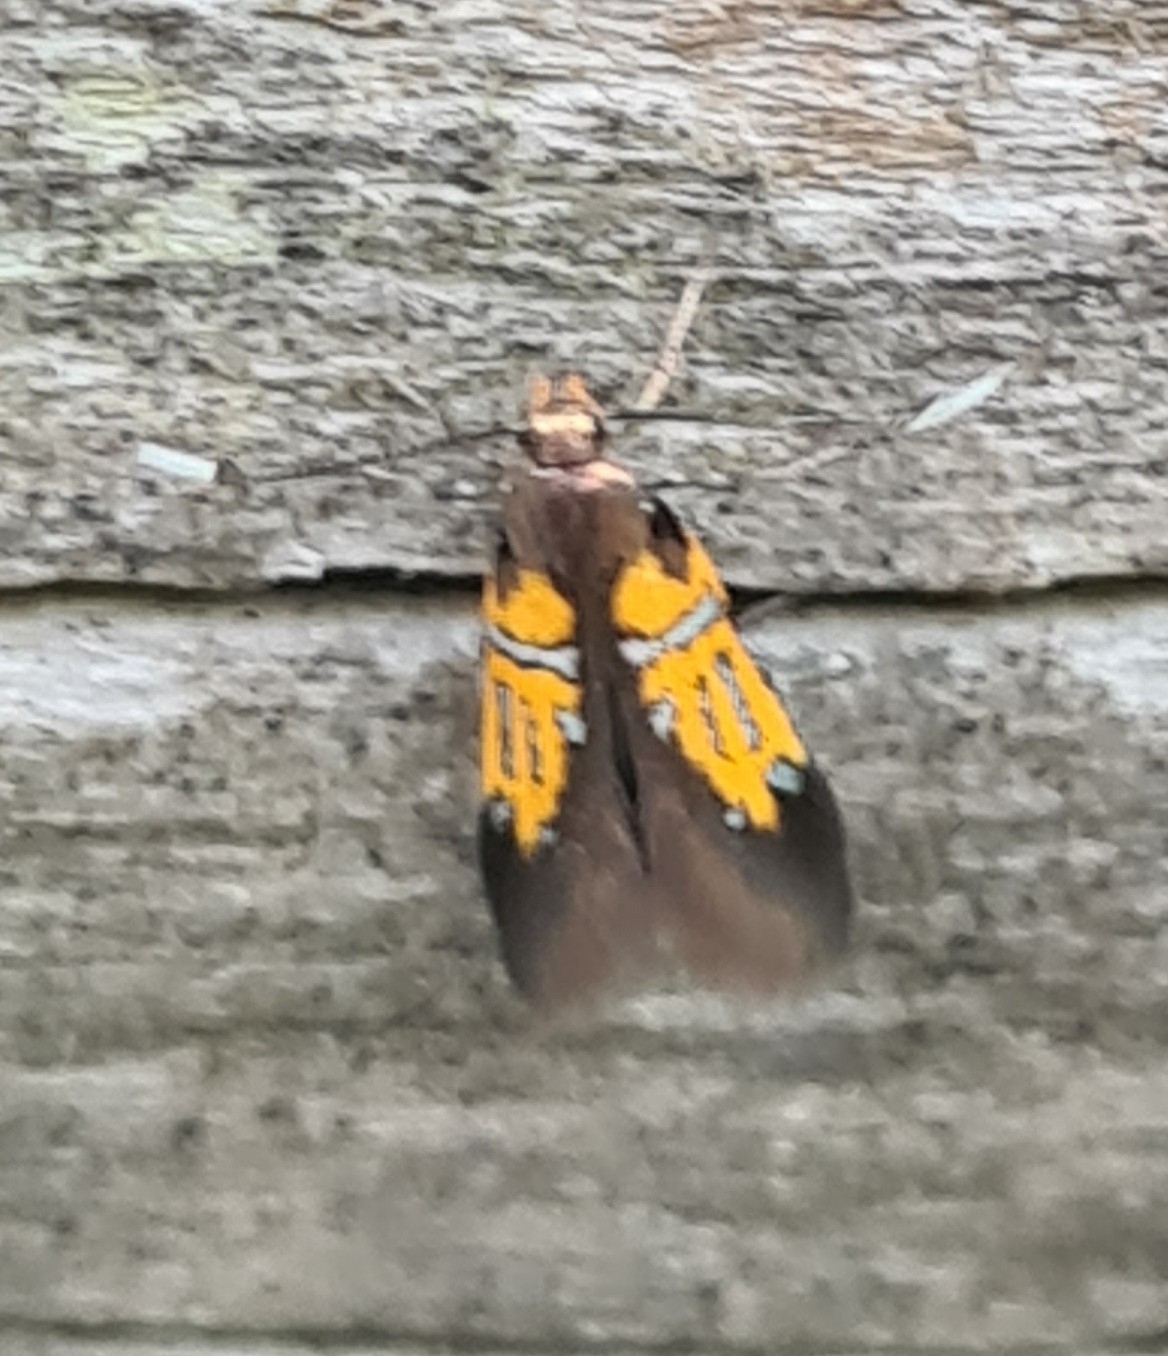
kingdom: Animalia
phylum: Arthropoda
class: Insecta
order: Lepidoptera
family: Oecophoridae
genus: Schiffermuelleria
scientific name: Schiffermuelleria schaefferella
